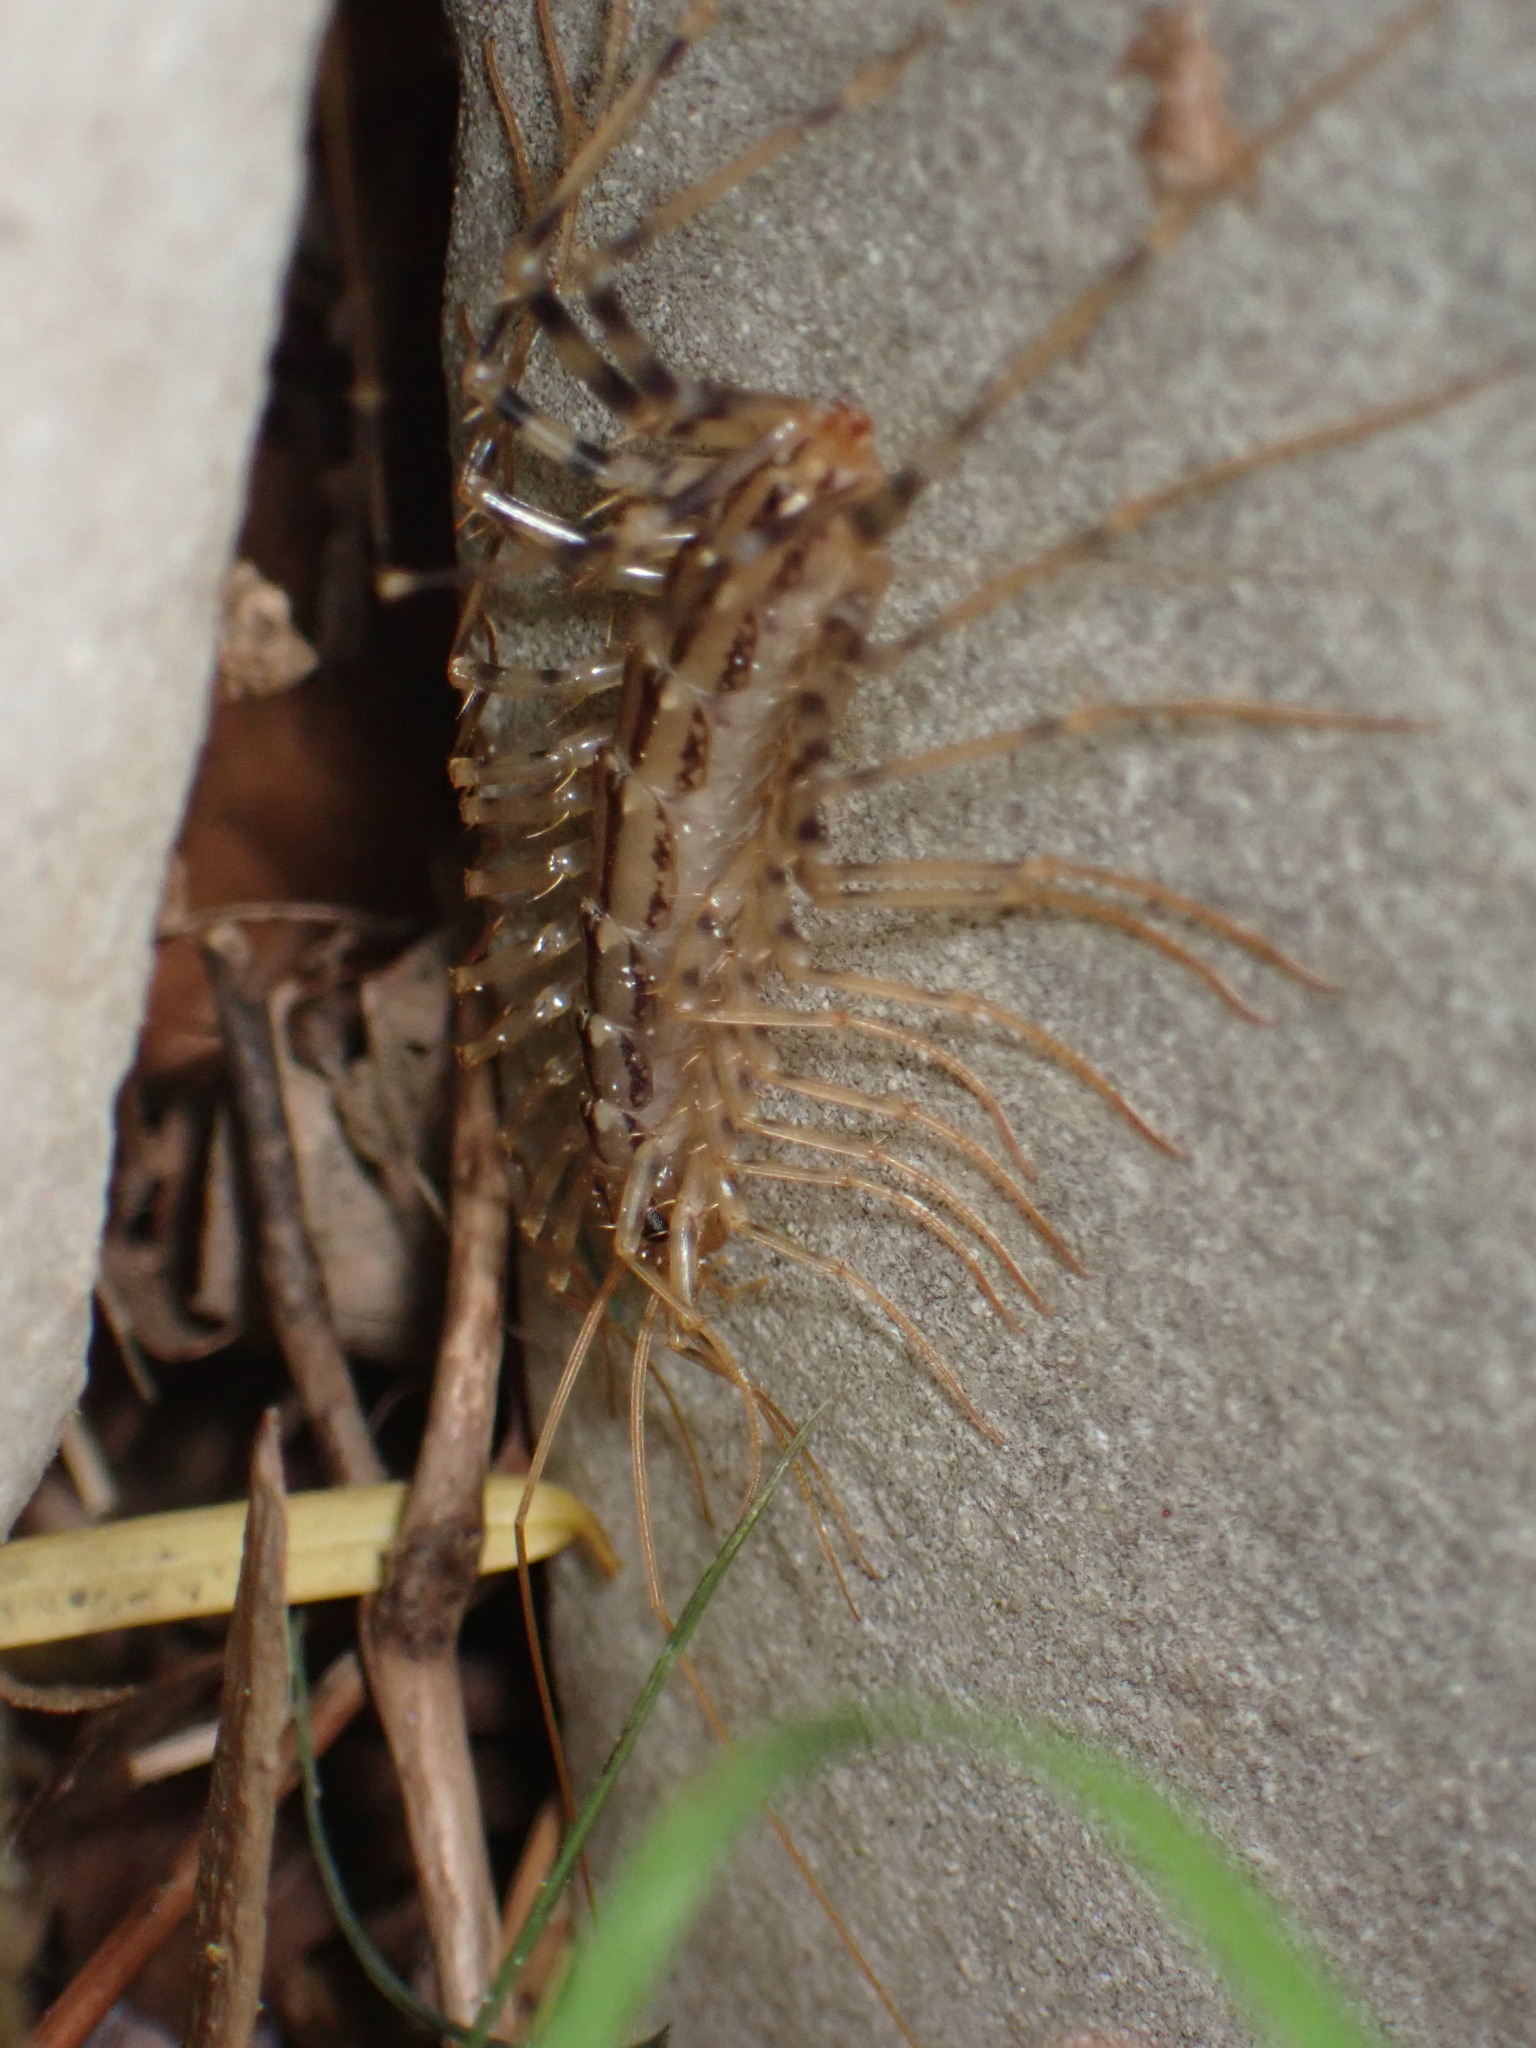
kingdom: Animalia
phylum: Arthropoda
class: Chilopoda
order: Scutigeromorpha
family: Scutigeridae
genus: Scutigera
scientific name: Scutigera coleoptrata
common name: House centipede
